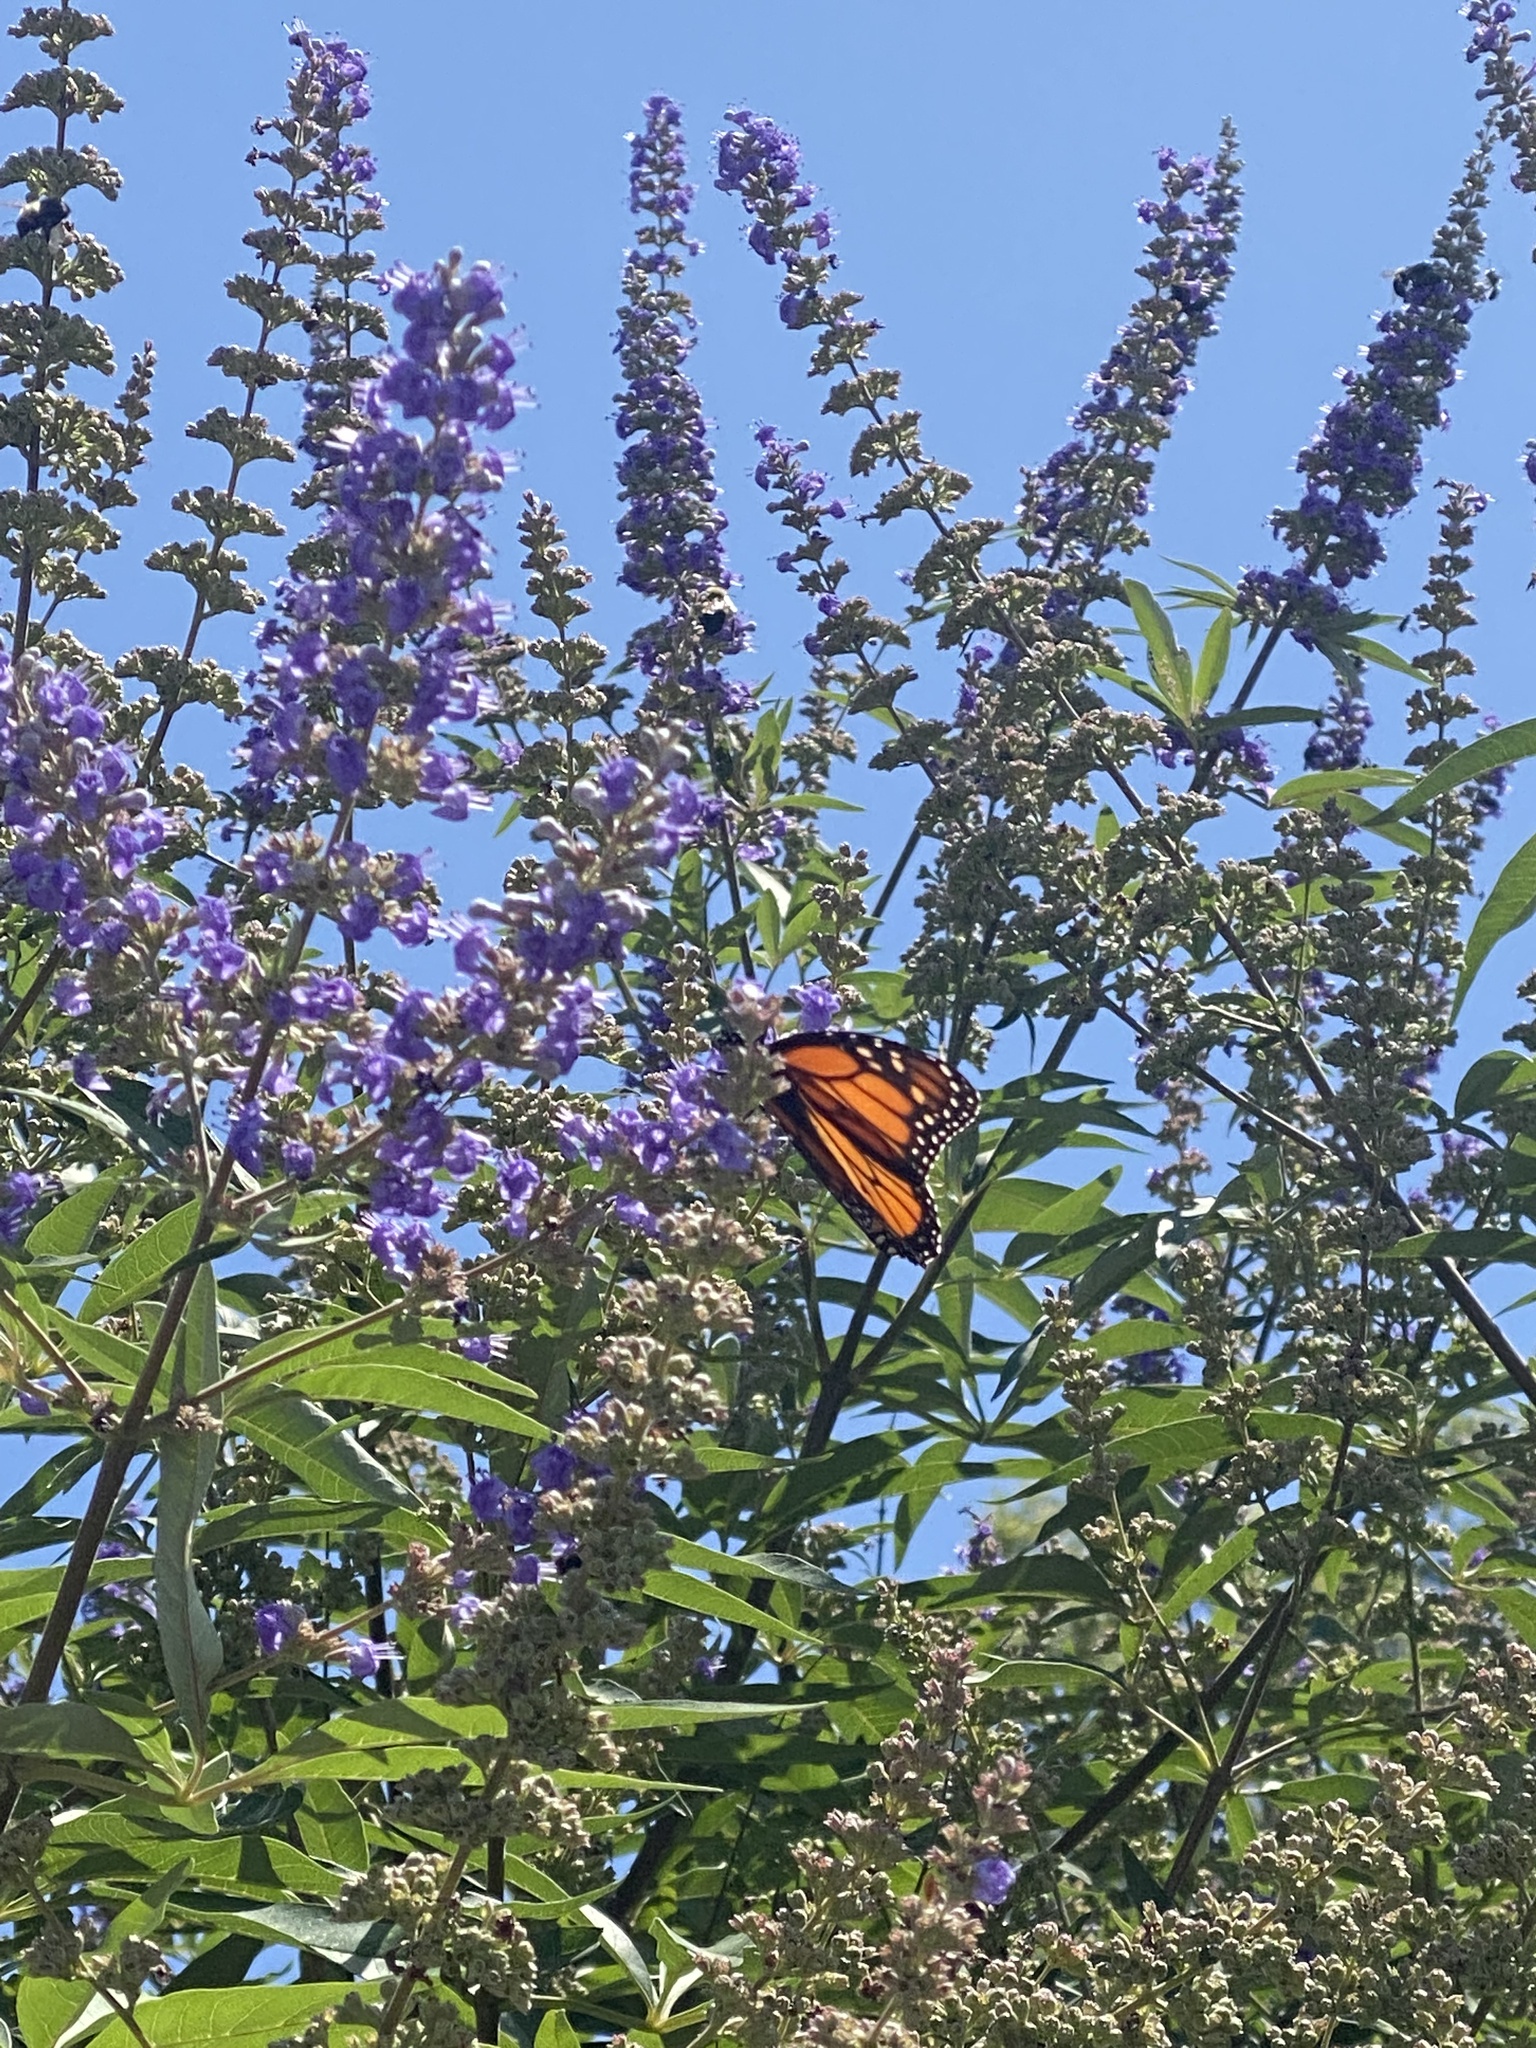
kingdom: Animalia
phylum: Arthropoda
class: Insecta
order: Lepidoptera
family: Nymphalidae
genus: Danaus
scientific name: Danaus plexippus
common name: Monarch
